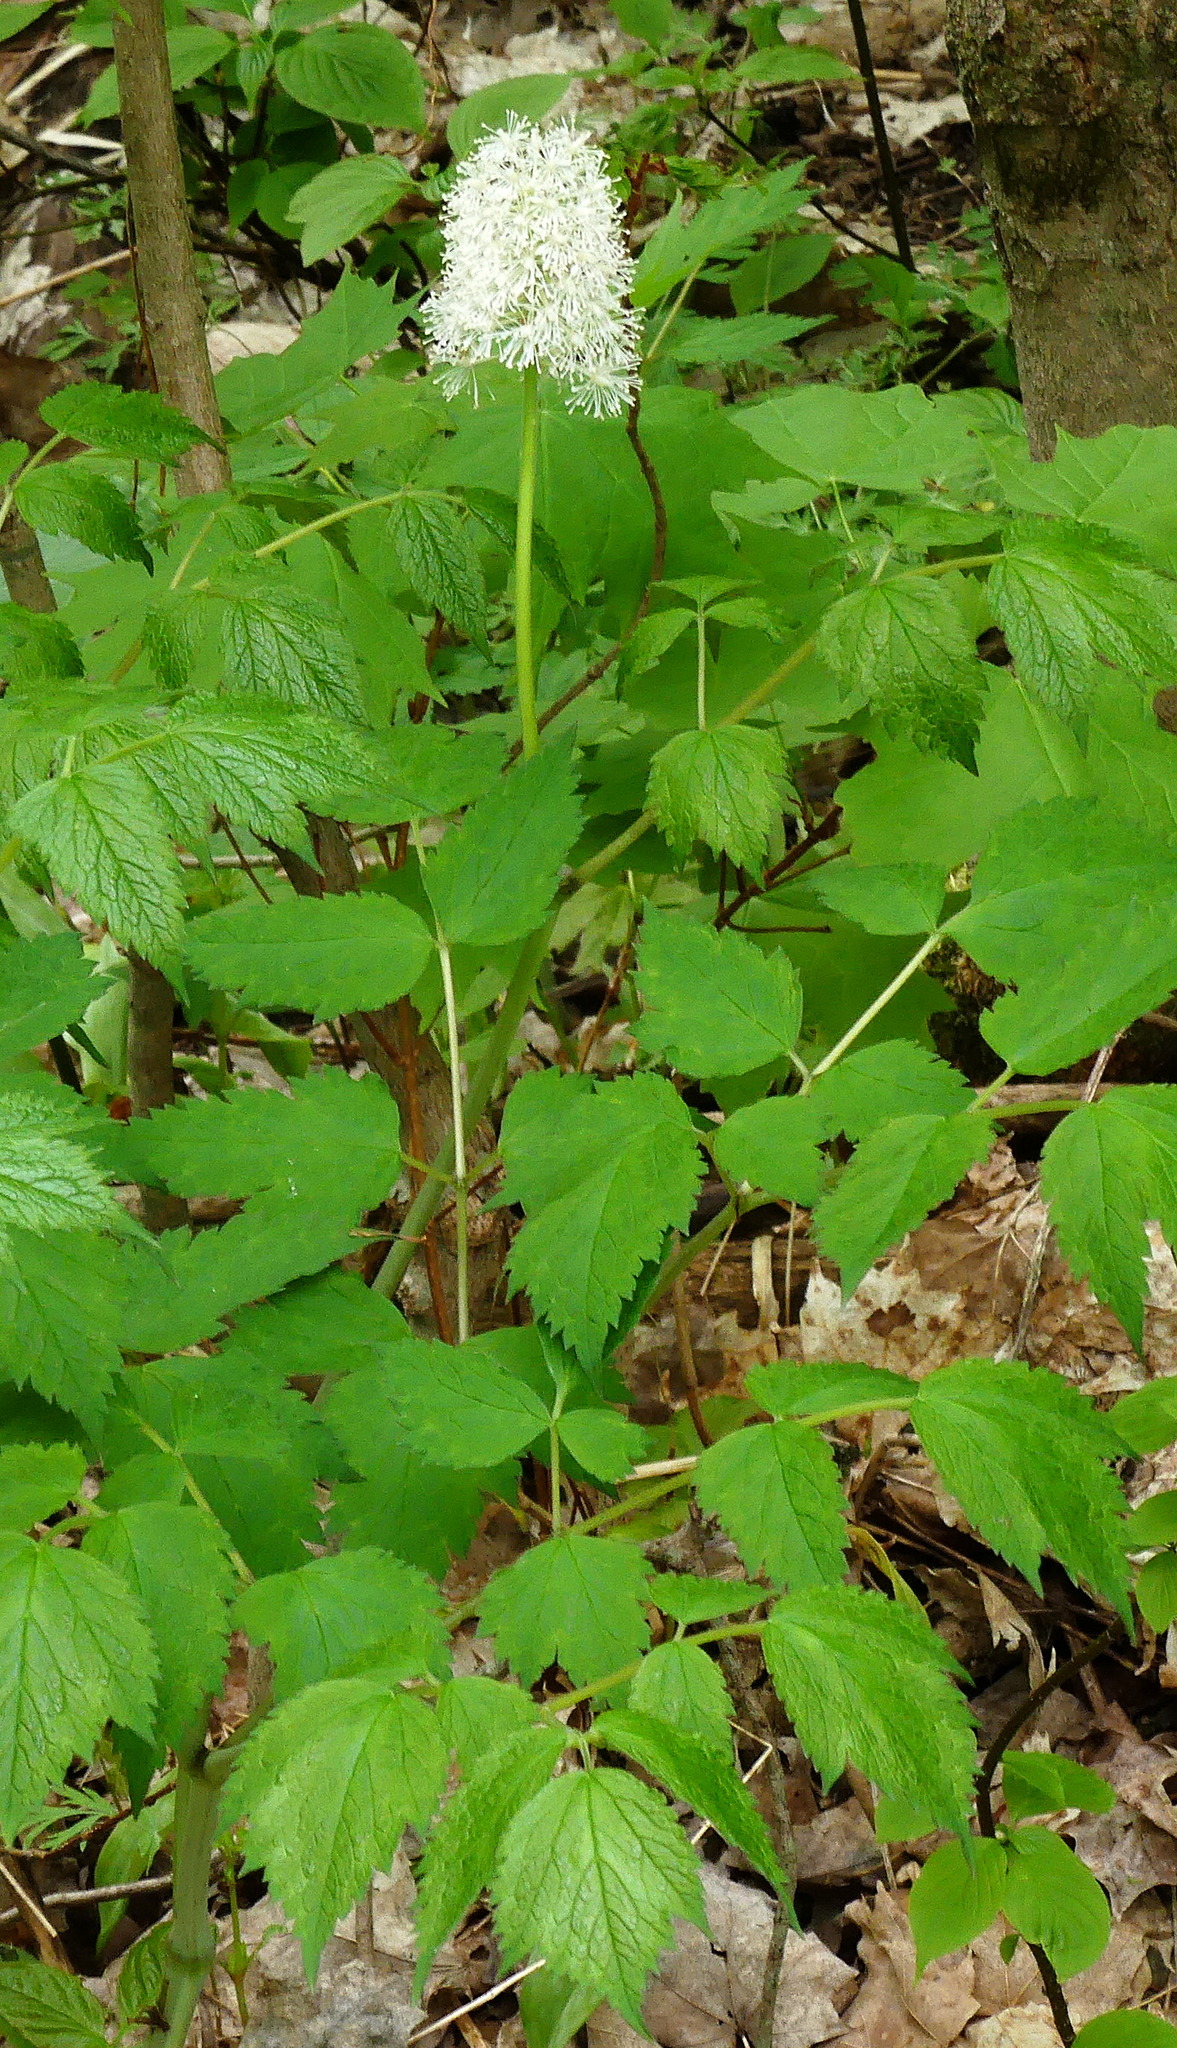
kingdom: Plantae
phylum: Tracheophyta
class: Magnoliopsida
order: Ranunculales
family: Ranunculaceae
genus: Actaea
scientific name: Actaea rubra
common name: Red baneberry
